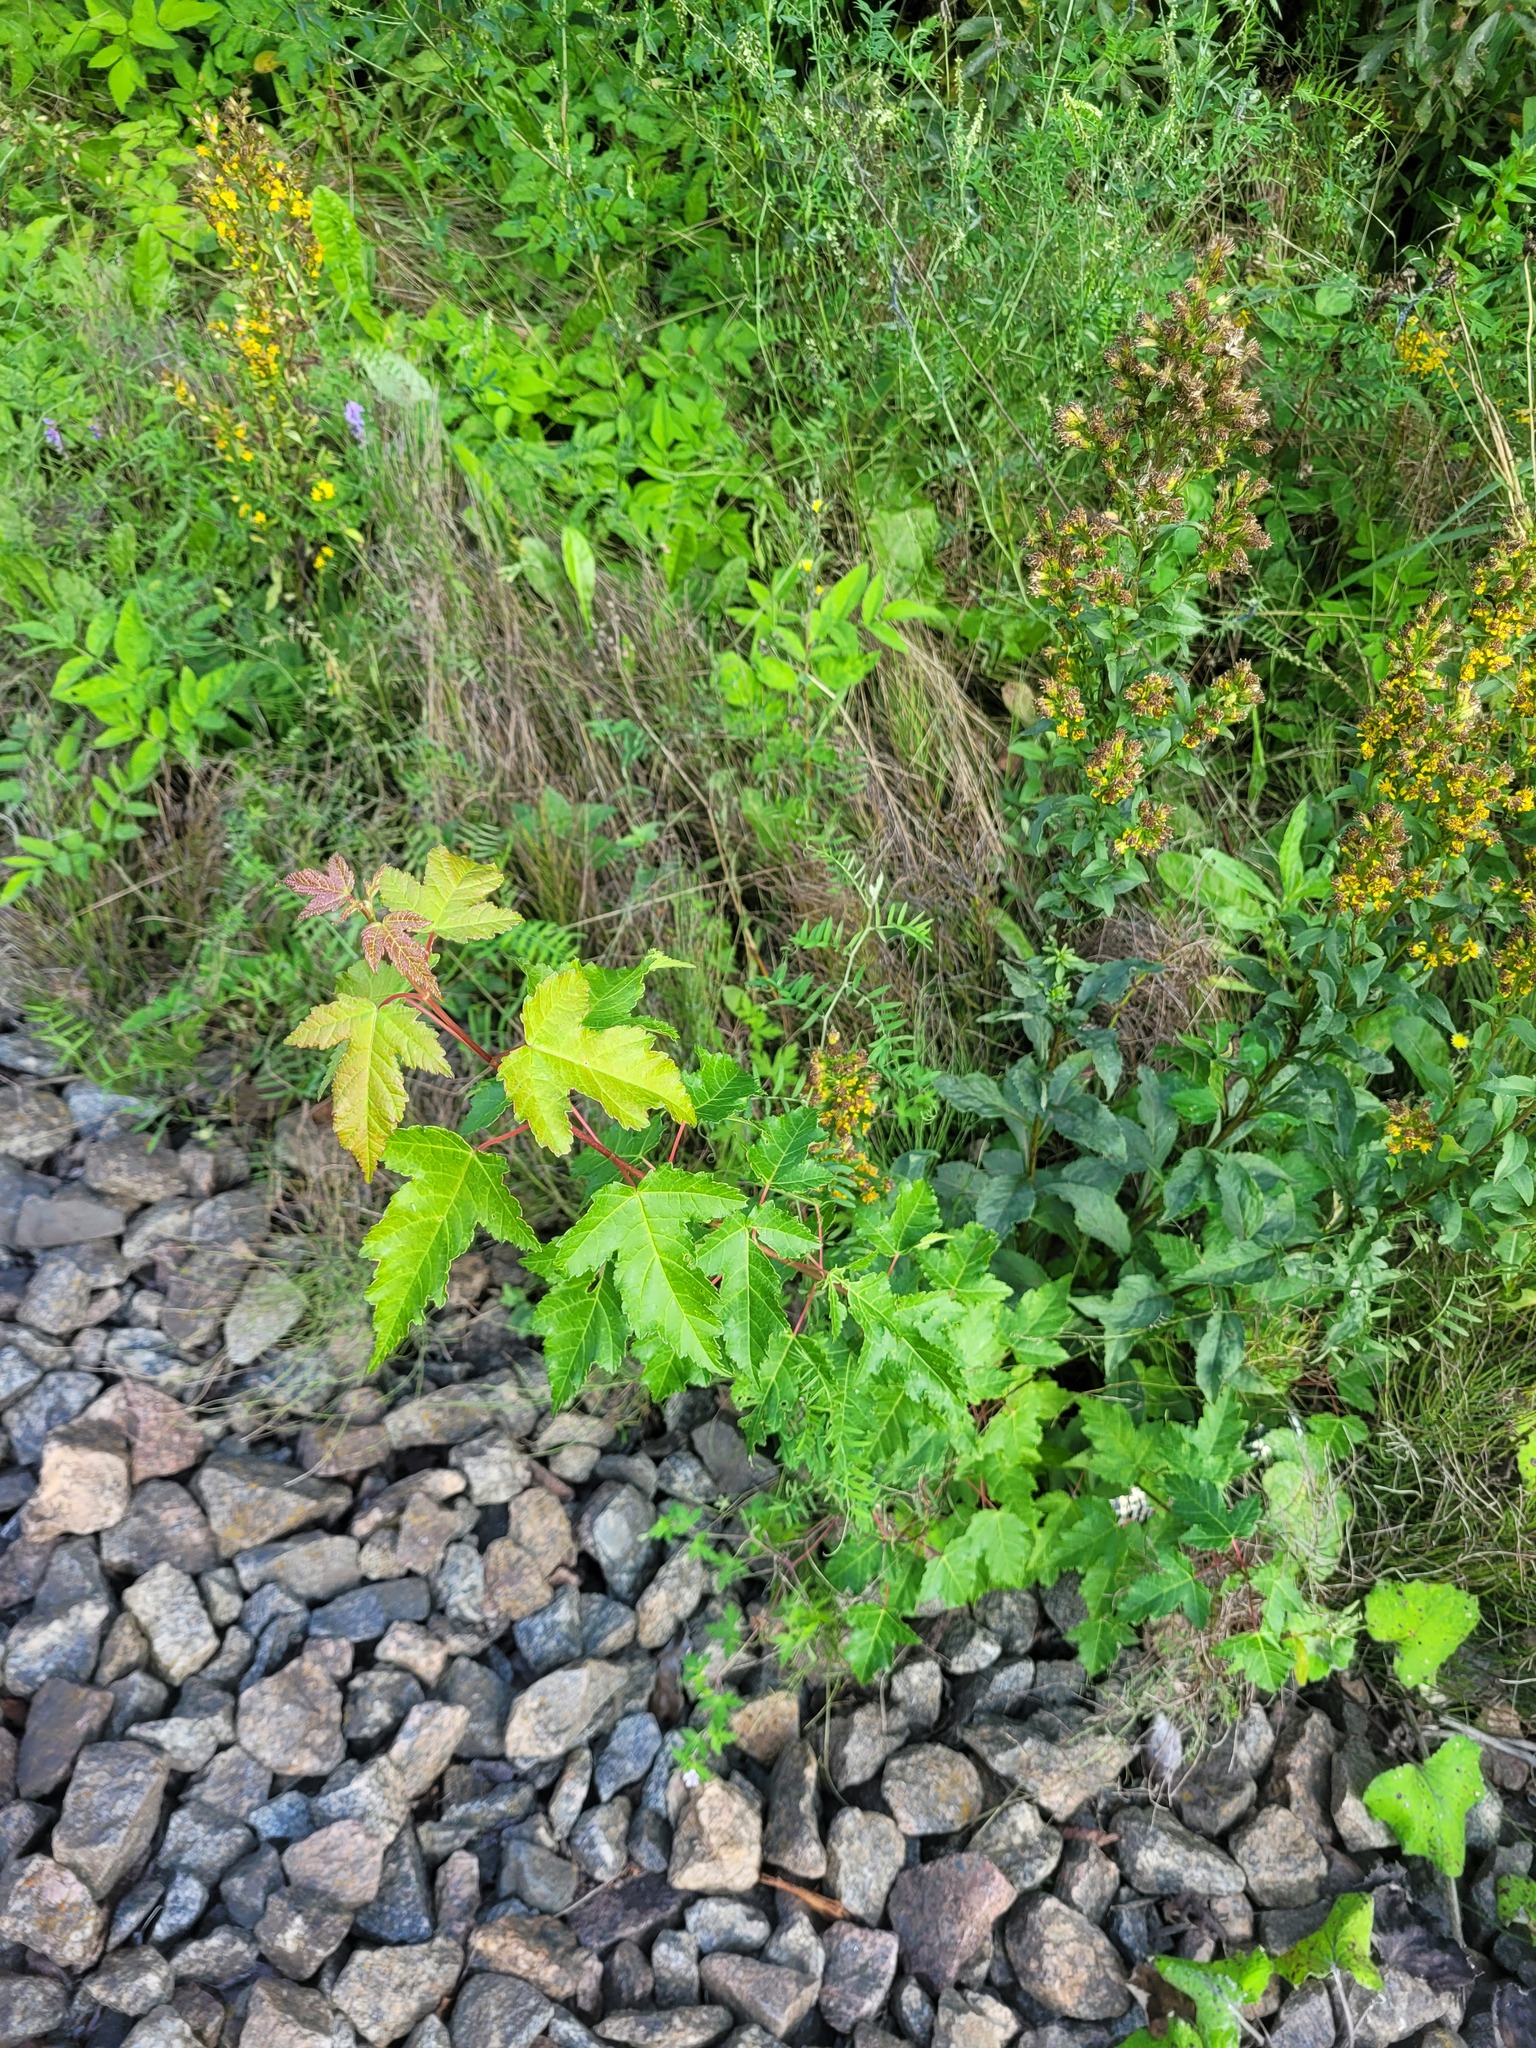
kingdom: Plantae
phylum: Tracheophyta
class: Magnoliopsida
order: Sapindales
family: Sapindaceae
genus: Acer
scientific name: Acer tataricum
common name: Tartar maple
